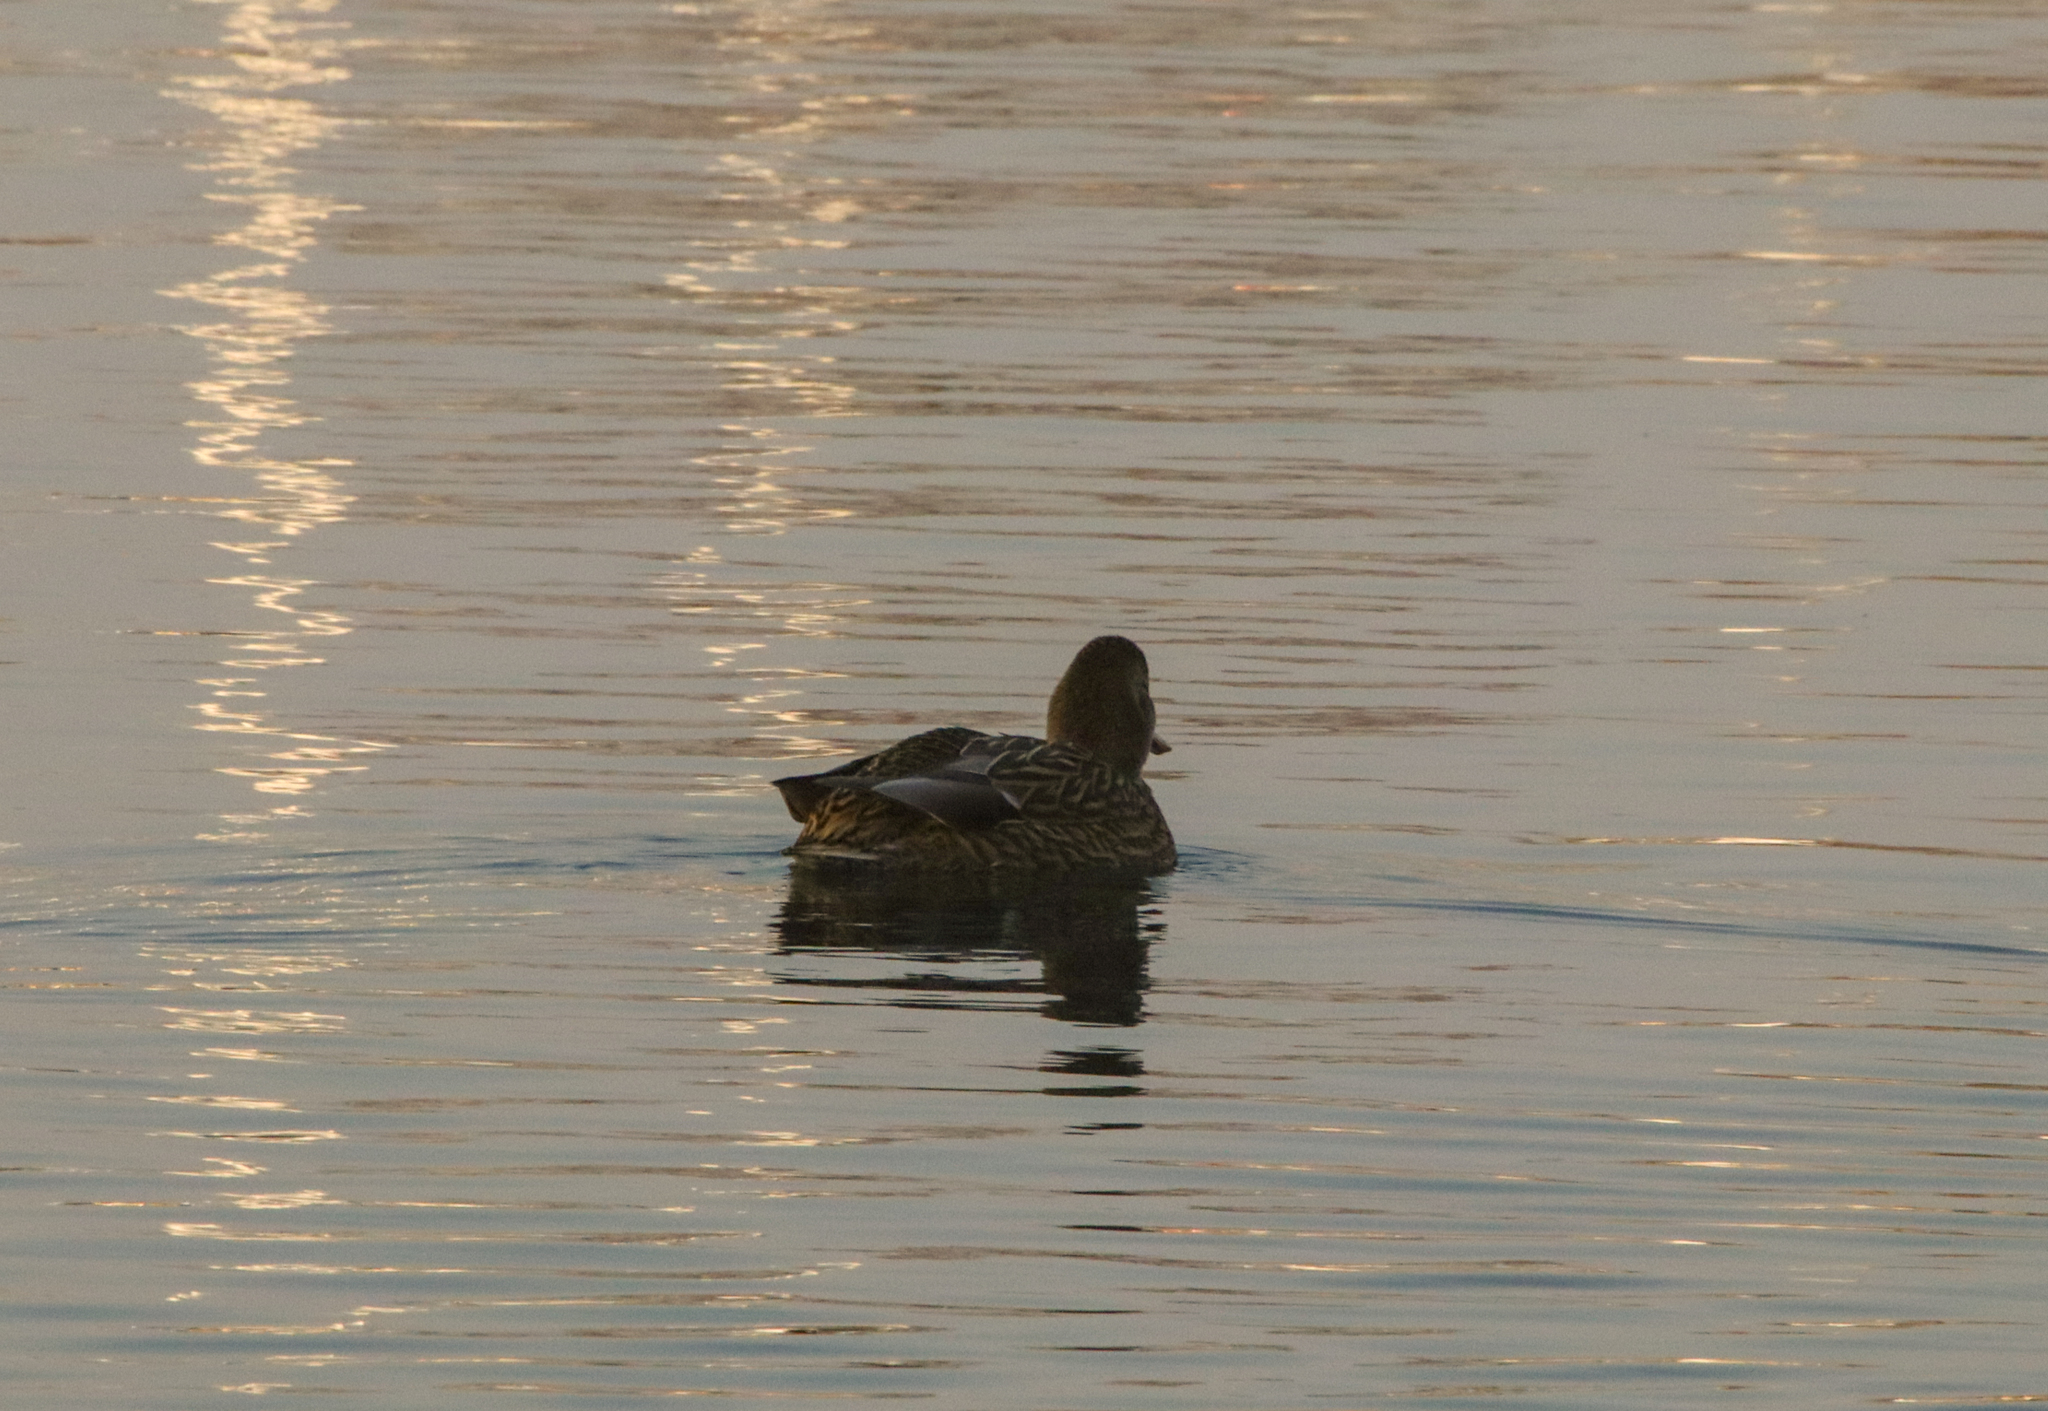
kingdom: Animalia
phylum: Chordata
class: Aves
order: Anseriformes
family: Anatidae
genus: Anas
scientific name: Anas platyrhynchos
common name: Mallard
